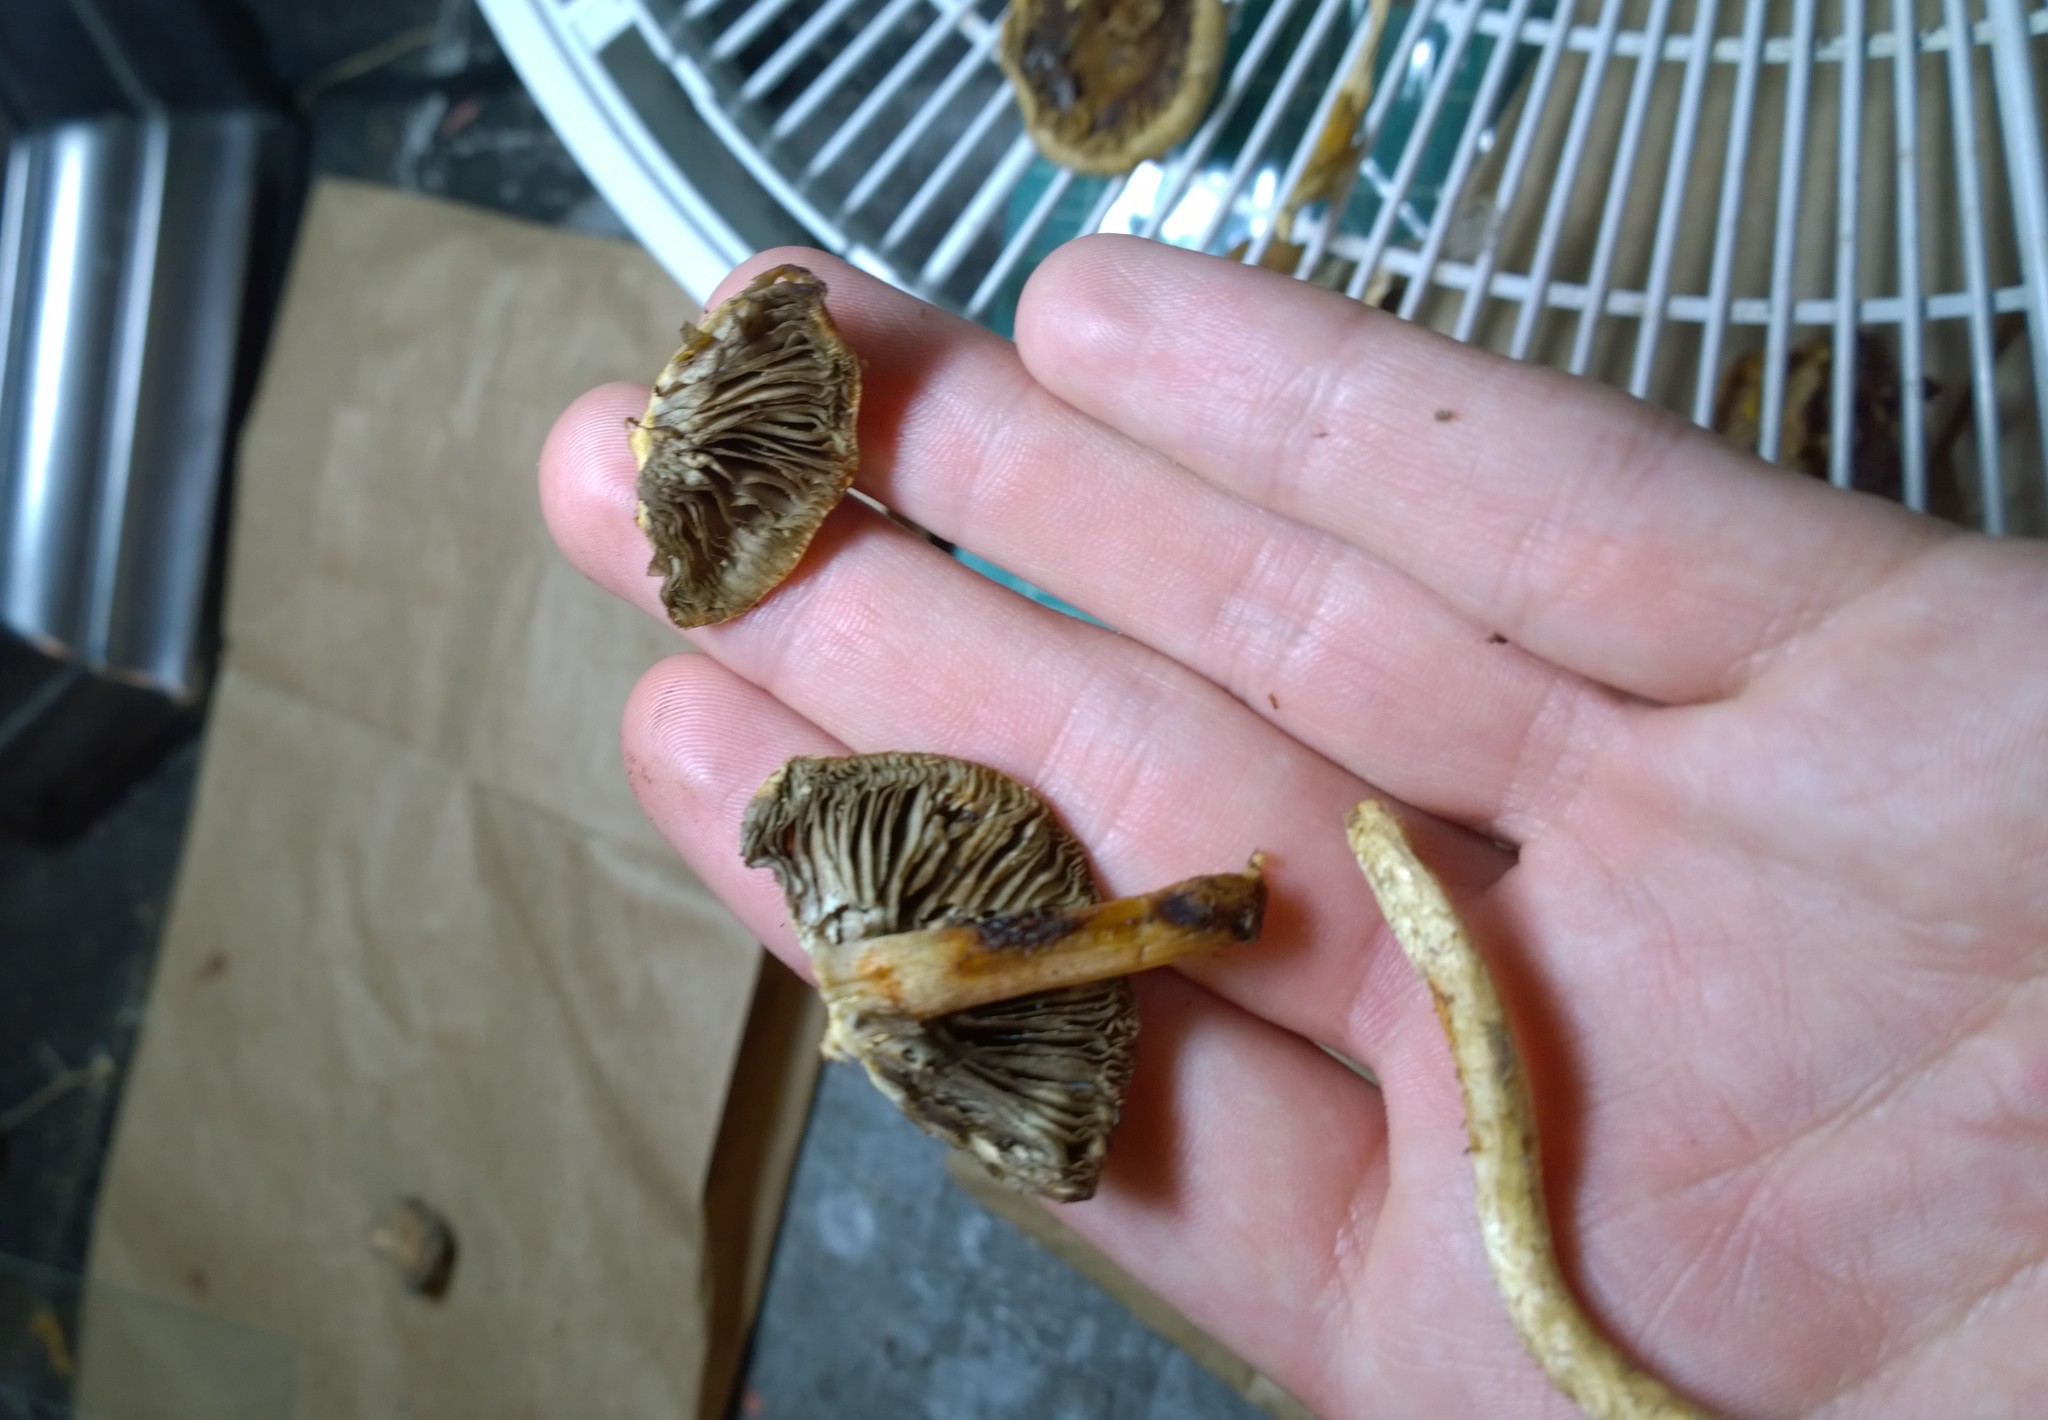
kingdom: Fungi
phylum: Basidiomycota
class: Agaricomycetes
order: Agaricales
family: Strophariaceae
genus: Leratiomyces
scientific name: Leratiomyces squamosus
